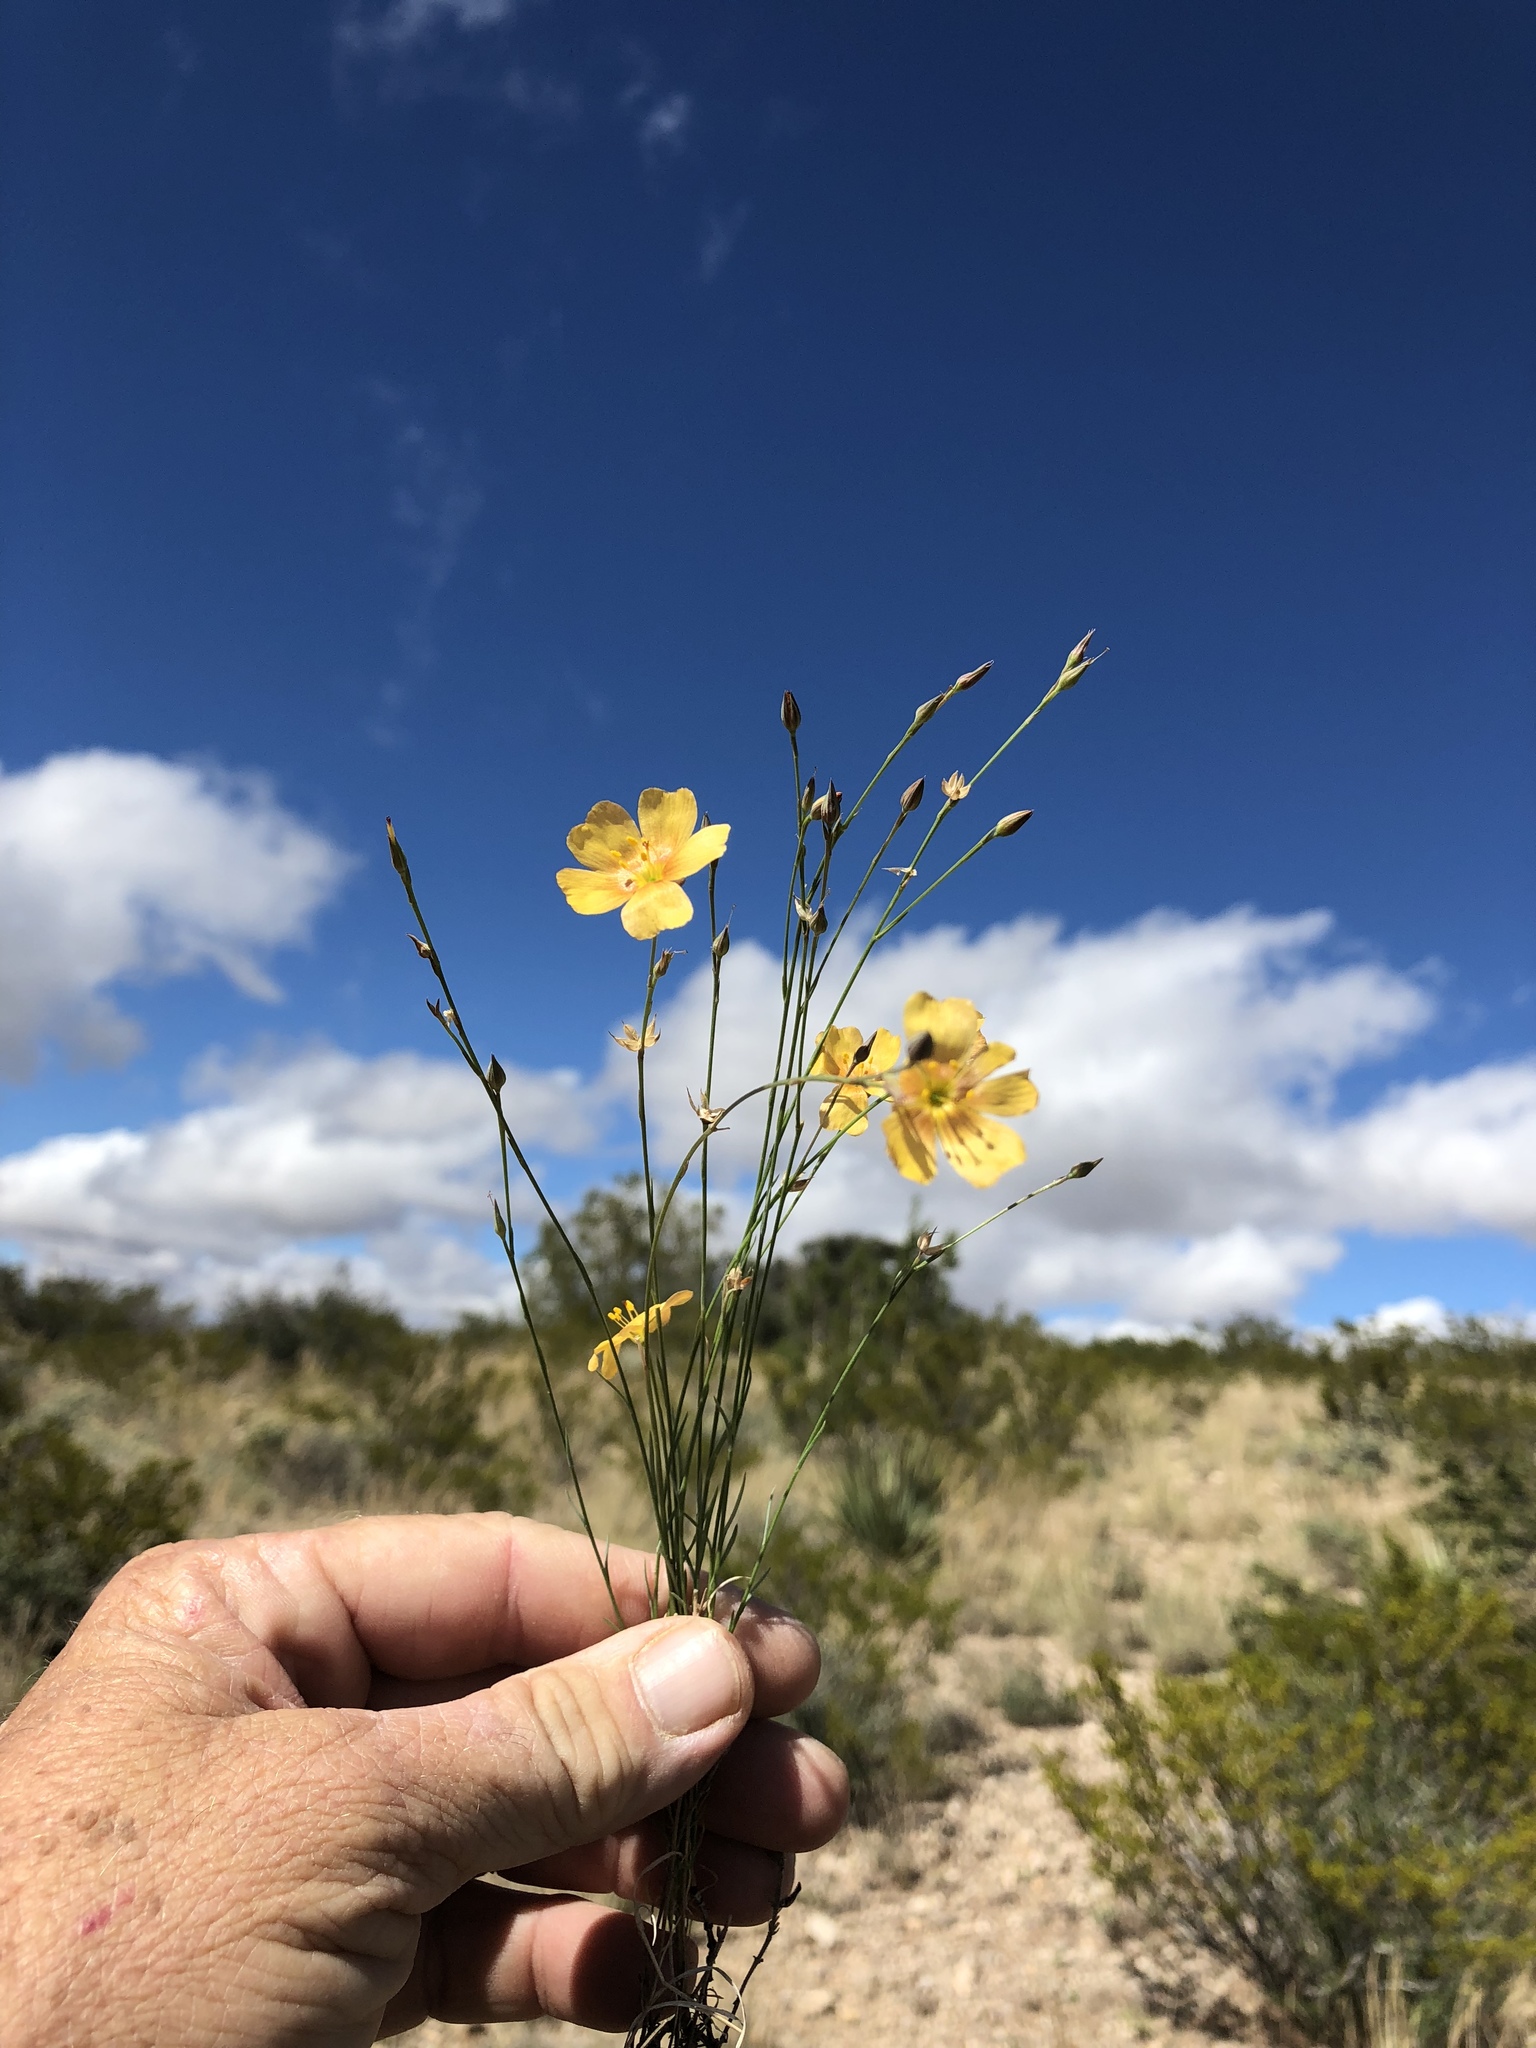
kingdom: Plantae
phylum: Tracheophyta
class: Magnoliopsida
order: Malpighiales
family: Linaceae
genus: Linum
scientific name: Linum berlandieri
